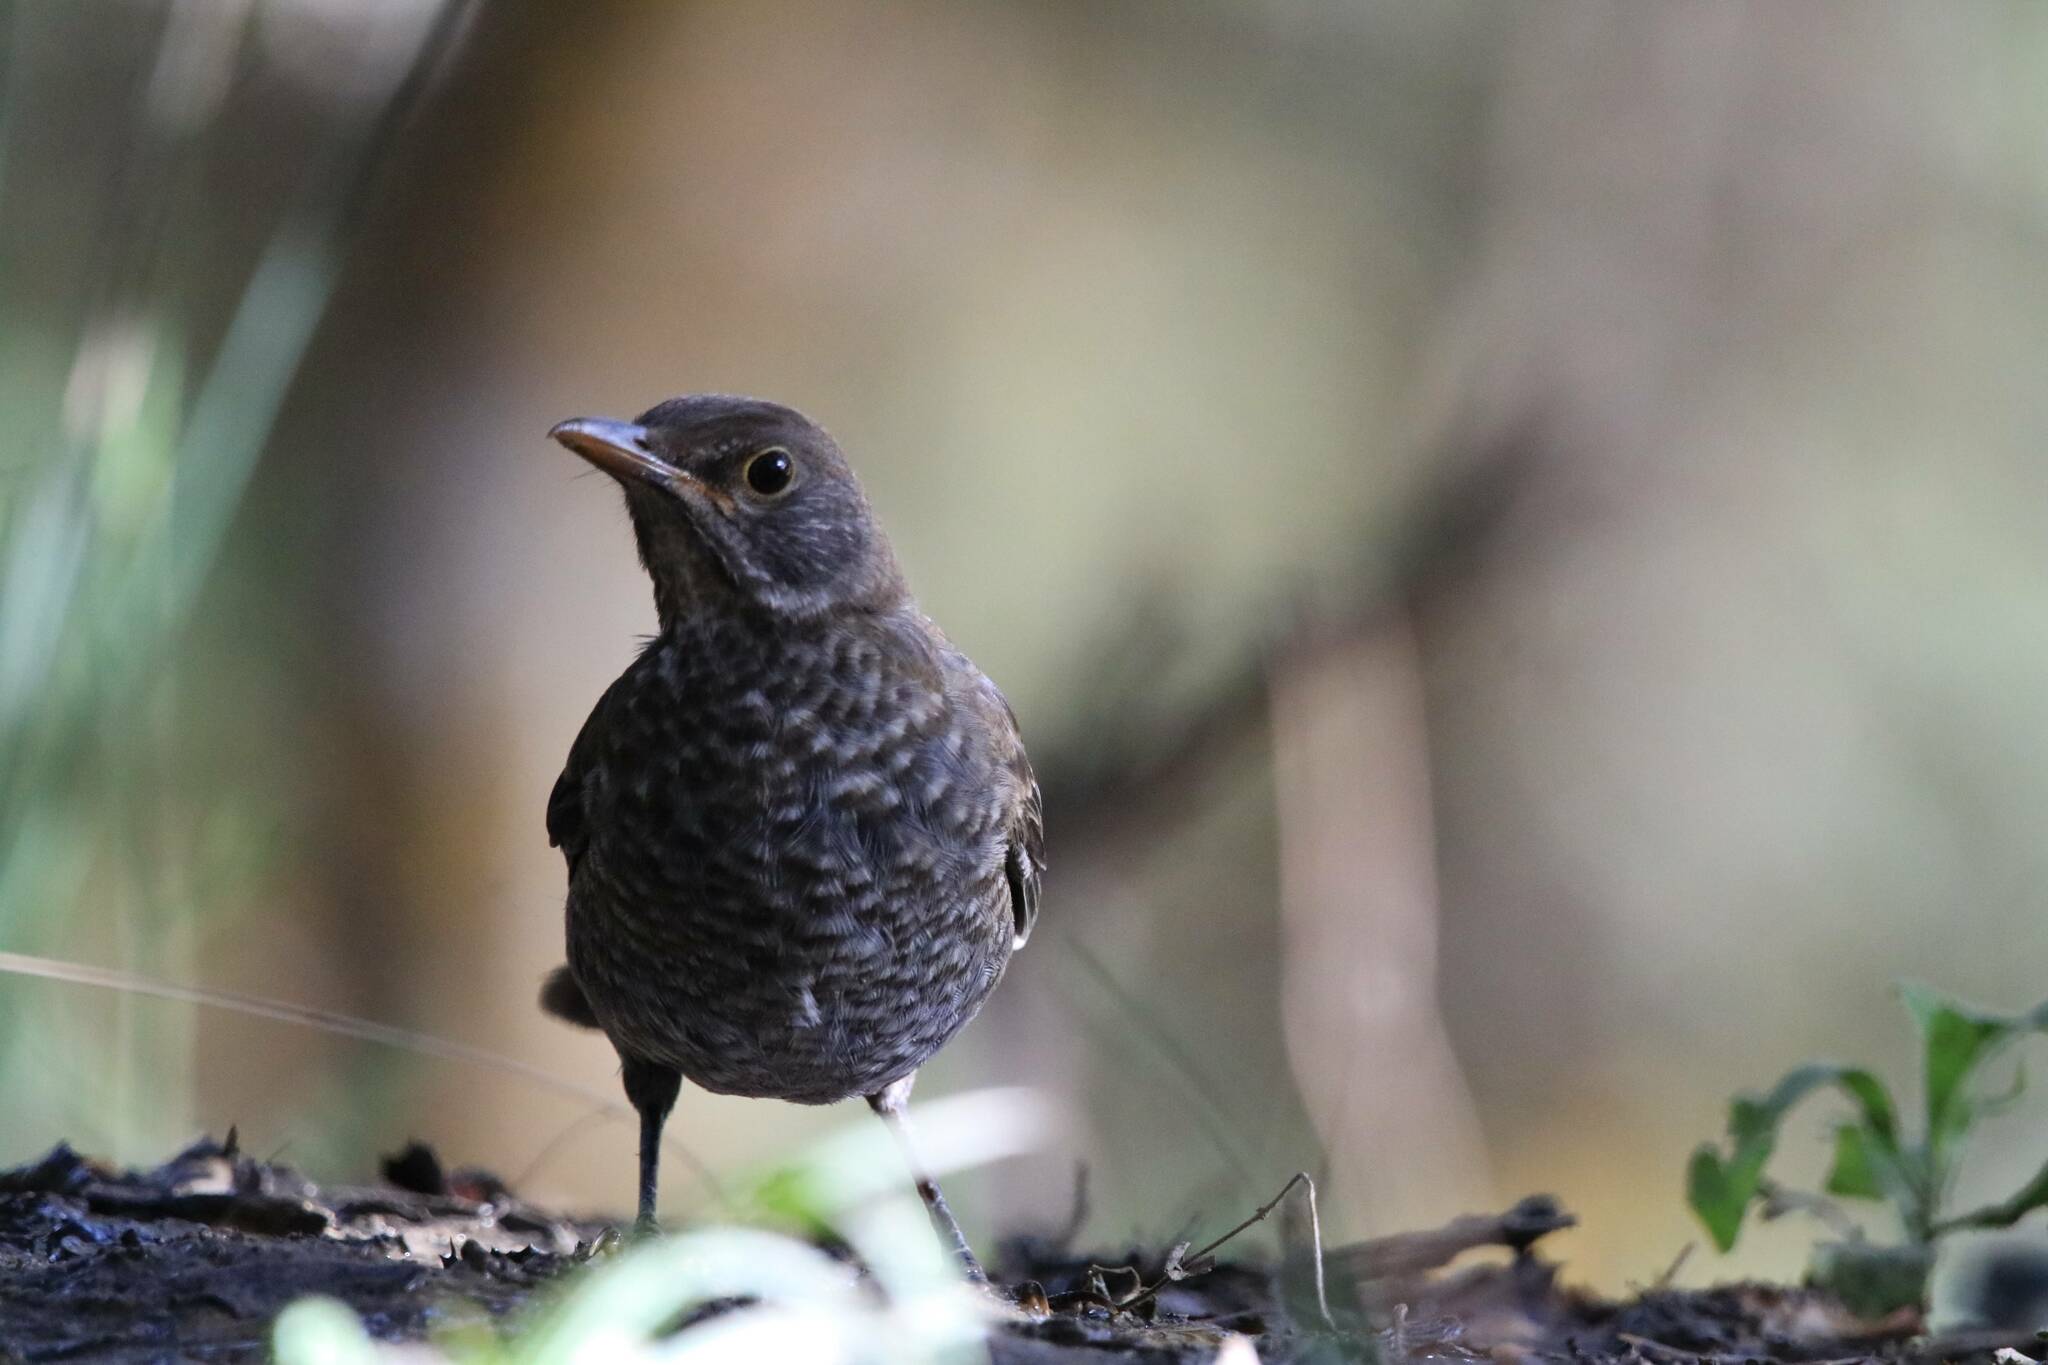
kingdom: Animalia
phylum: Chordata
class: Aves
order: Passeriformes
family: Turdidae
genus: Turdus
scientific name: Turdus merula
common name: Common blackbird
